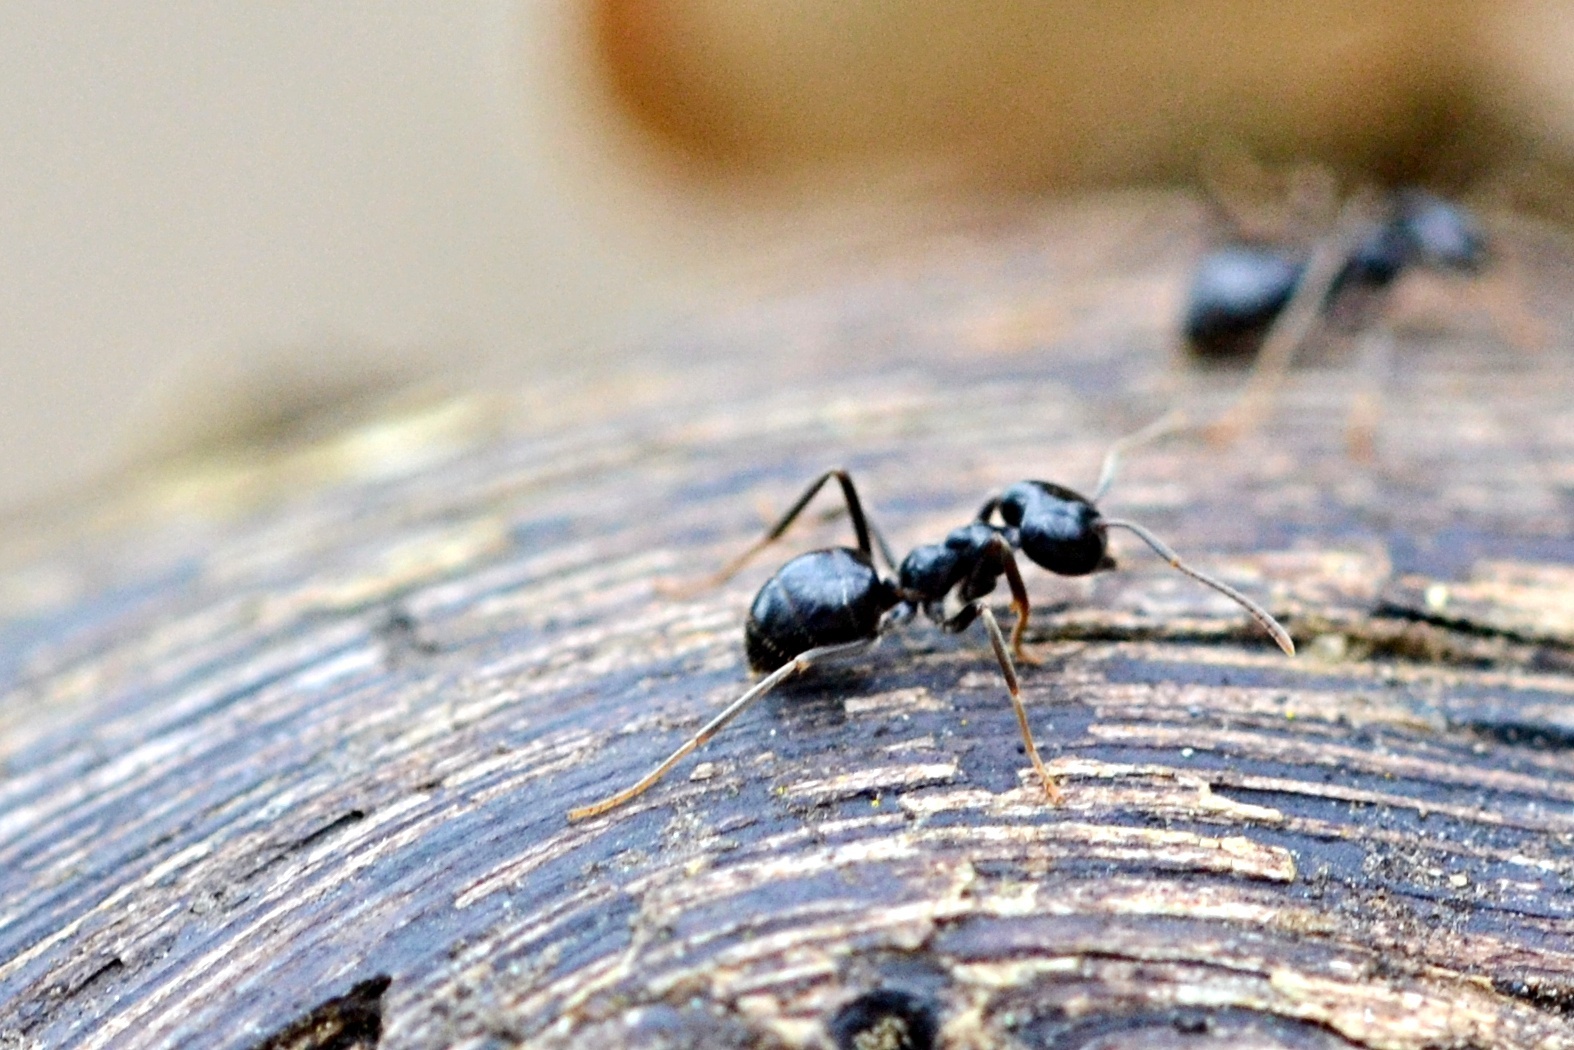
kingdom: Animalia
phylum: Arthropoda
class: Insecta
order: Hymenoptera
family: Formicidae
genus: Lasius
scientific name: Lasius fuliginosus
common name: Jet ant
